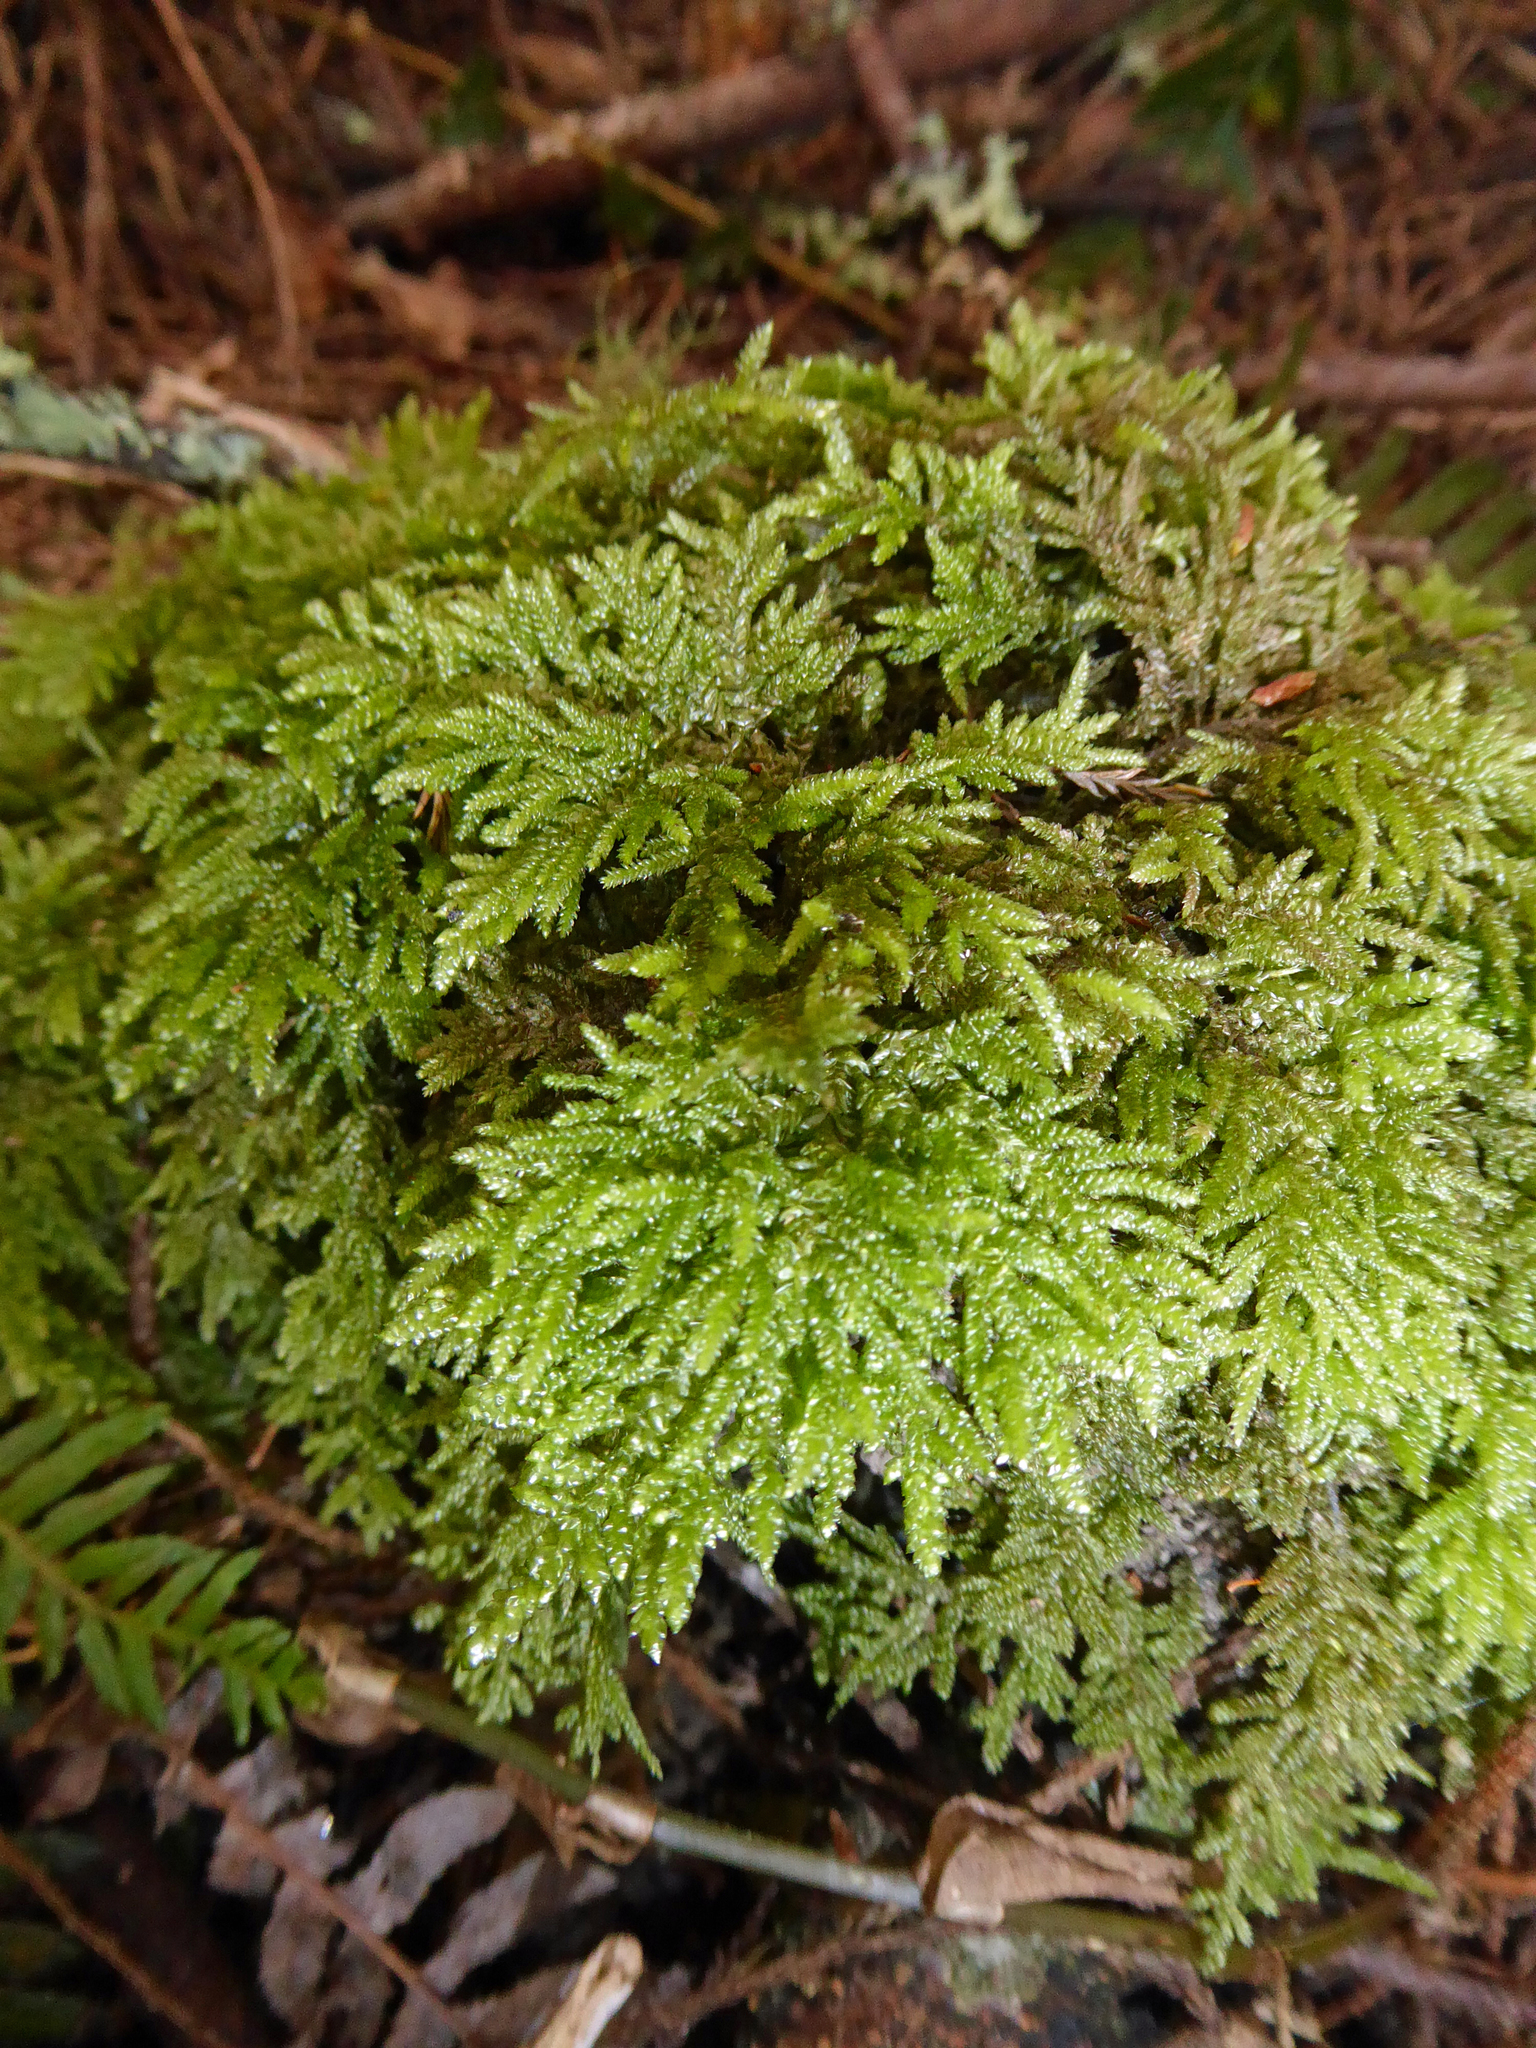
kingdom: Plantae
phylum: Bryophyta
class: Bryopsida
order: Hypnales
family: Lembophyllaceae
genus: Camptochaete
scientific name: Camptochaete arbuscula
